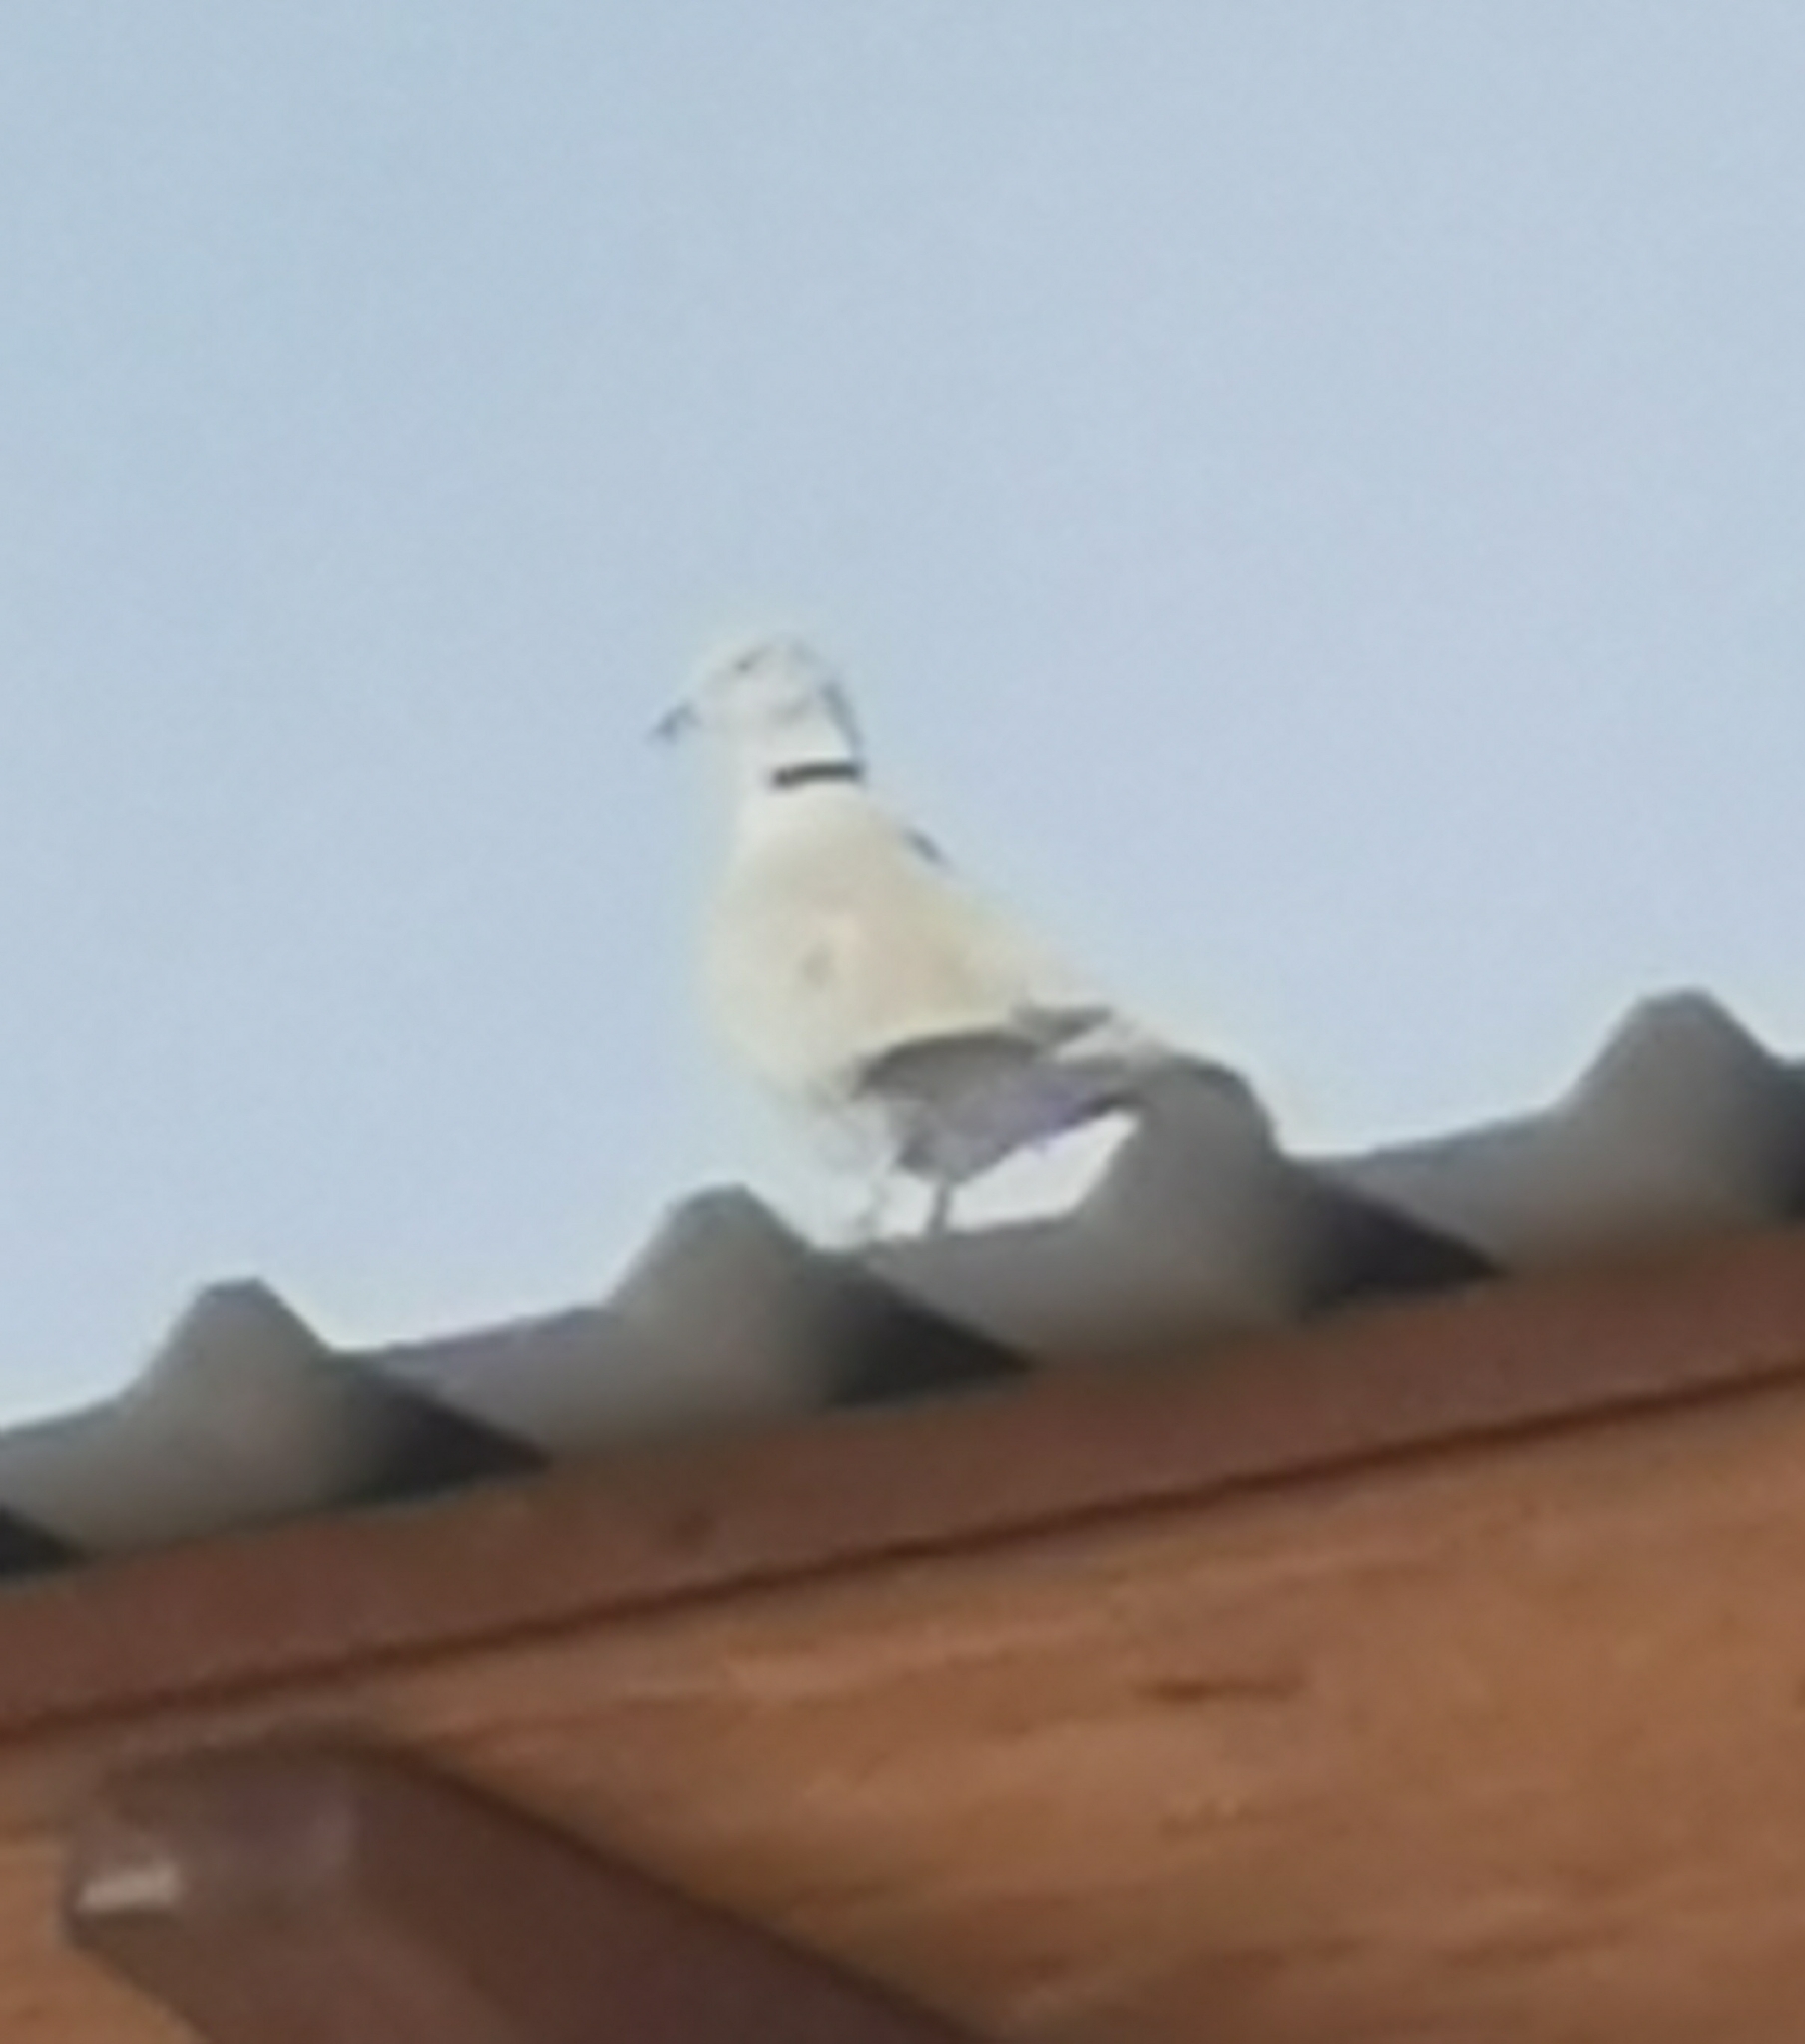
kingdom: Animalia
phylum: Chordata
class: Aves
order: Columbiformes
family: Columbidae
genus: Streptopelia
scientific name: Streptopelia decaocto
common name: Eurasian collared dove
